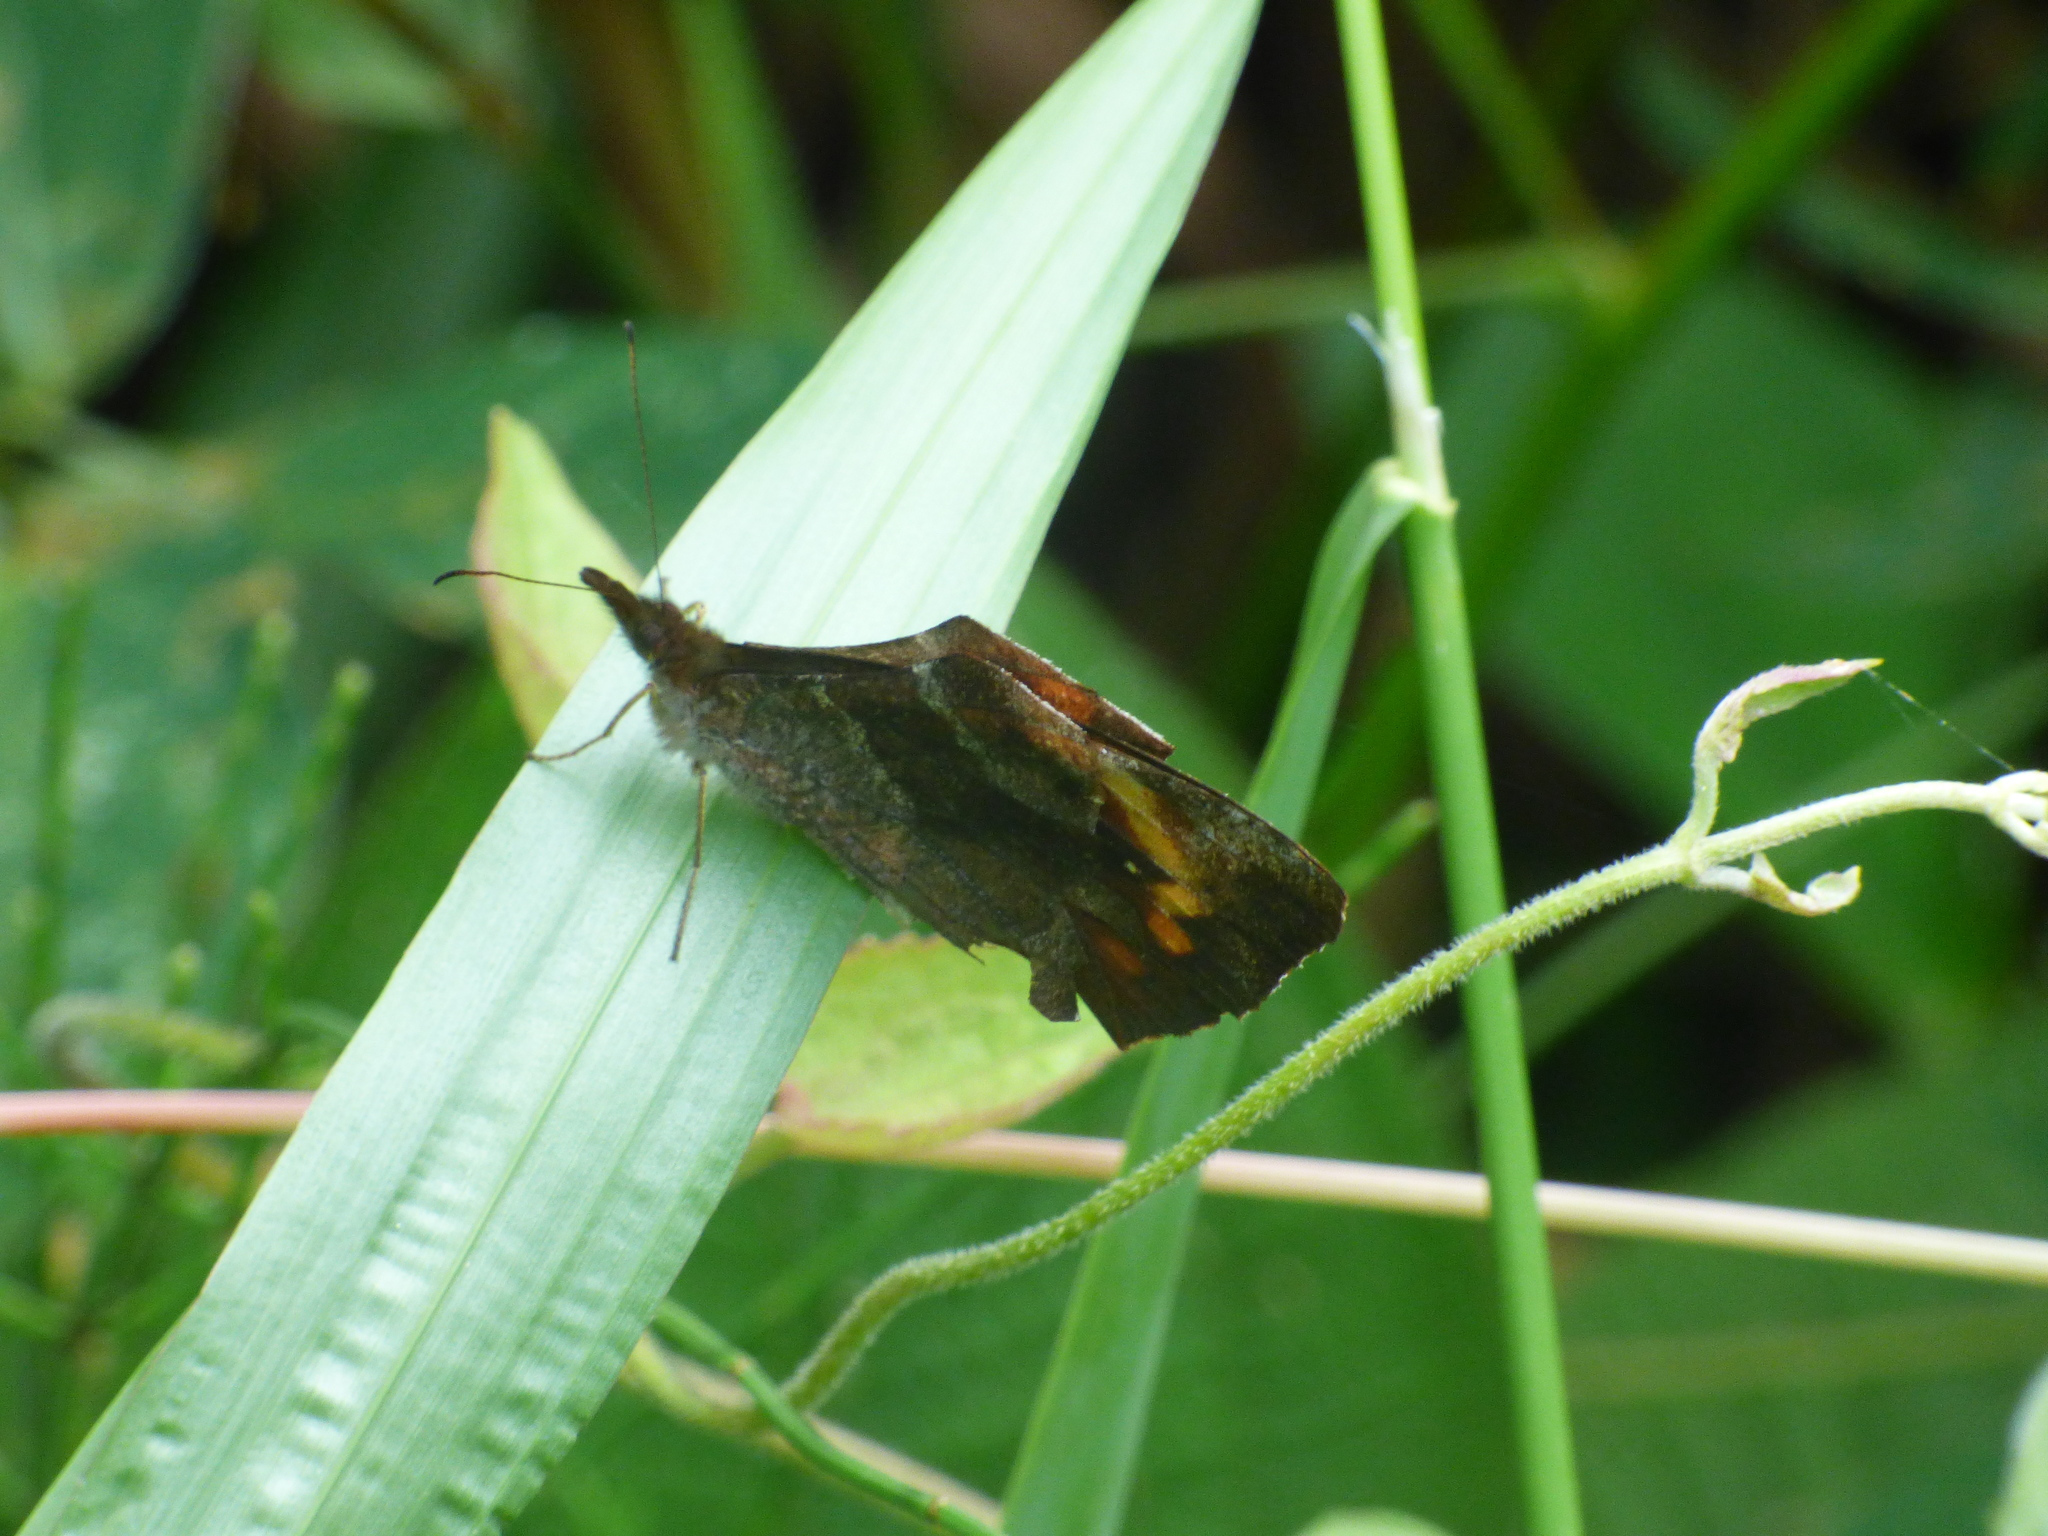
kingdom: Animalia
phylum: Arthropoda
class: Insecta
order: Lepidoptera
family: Nymphalidae
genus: Lasiophila
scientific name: Lasiophila zapatoza
